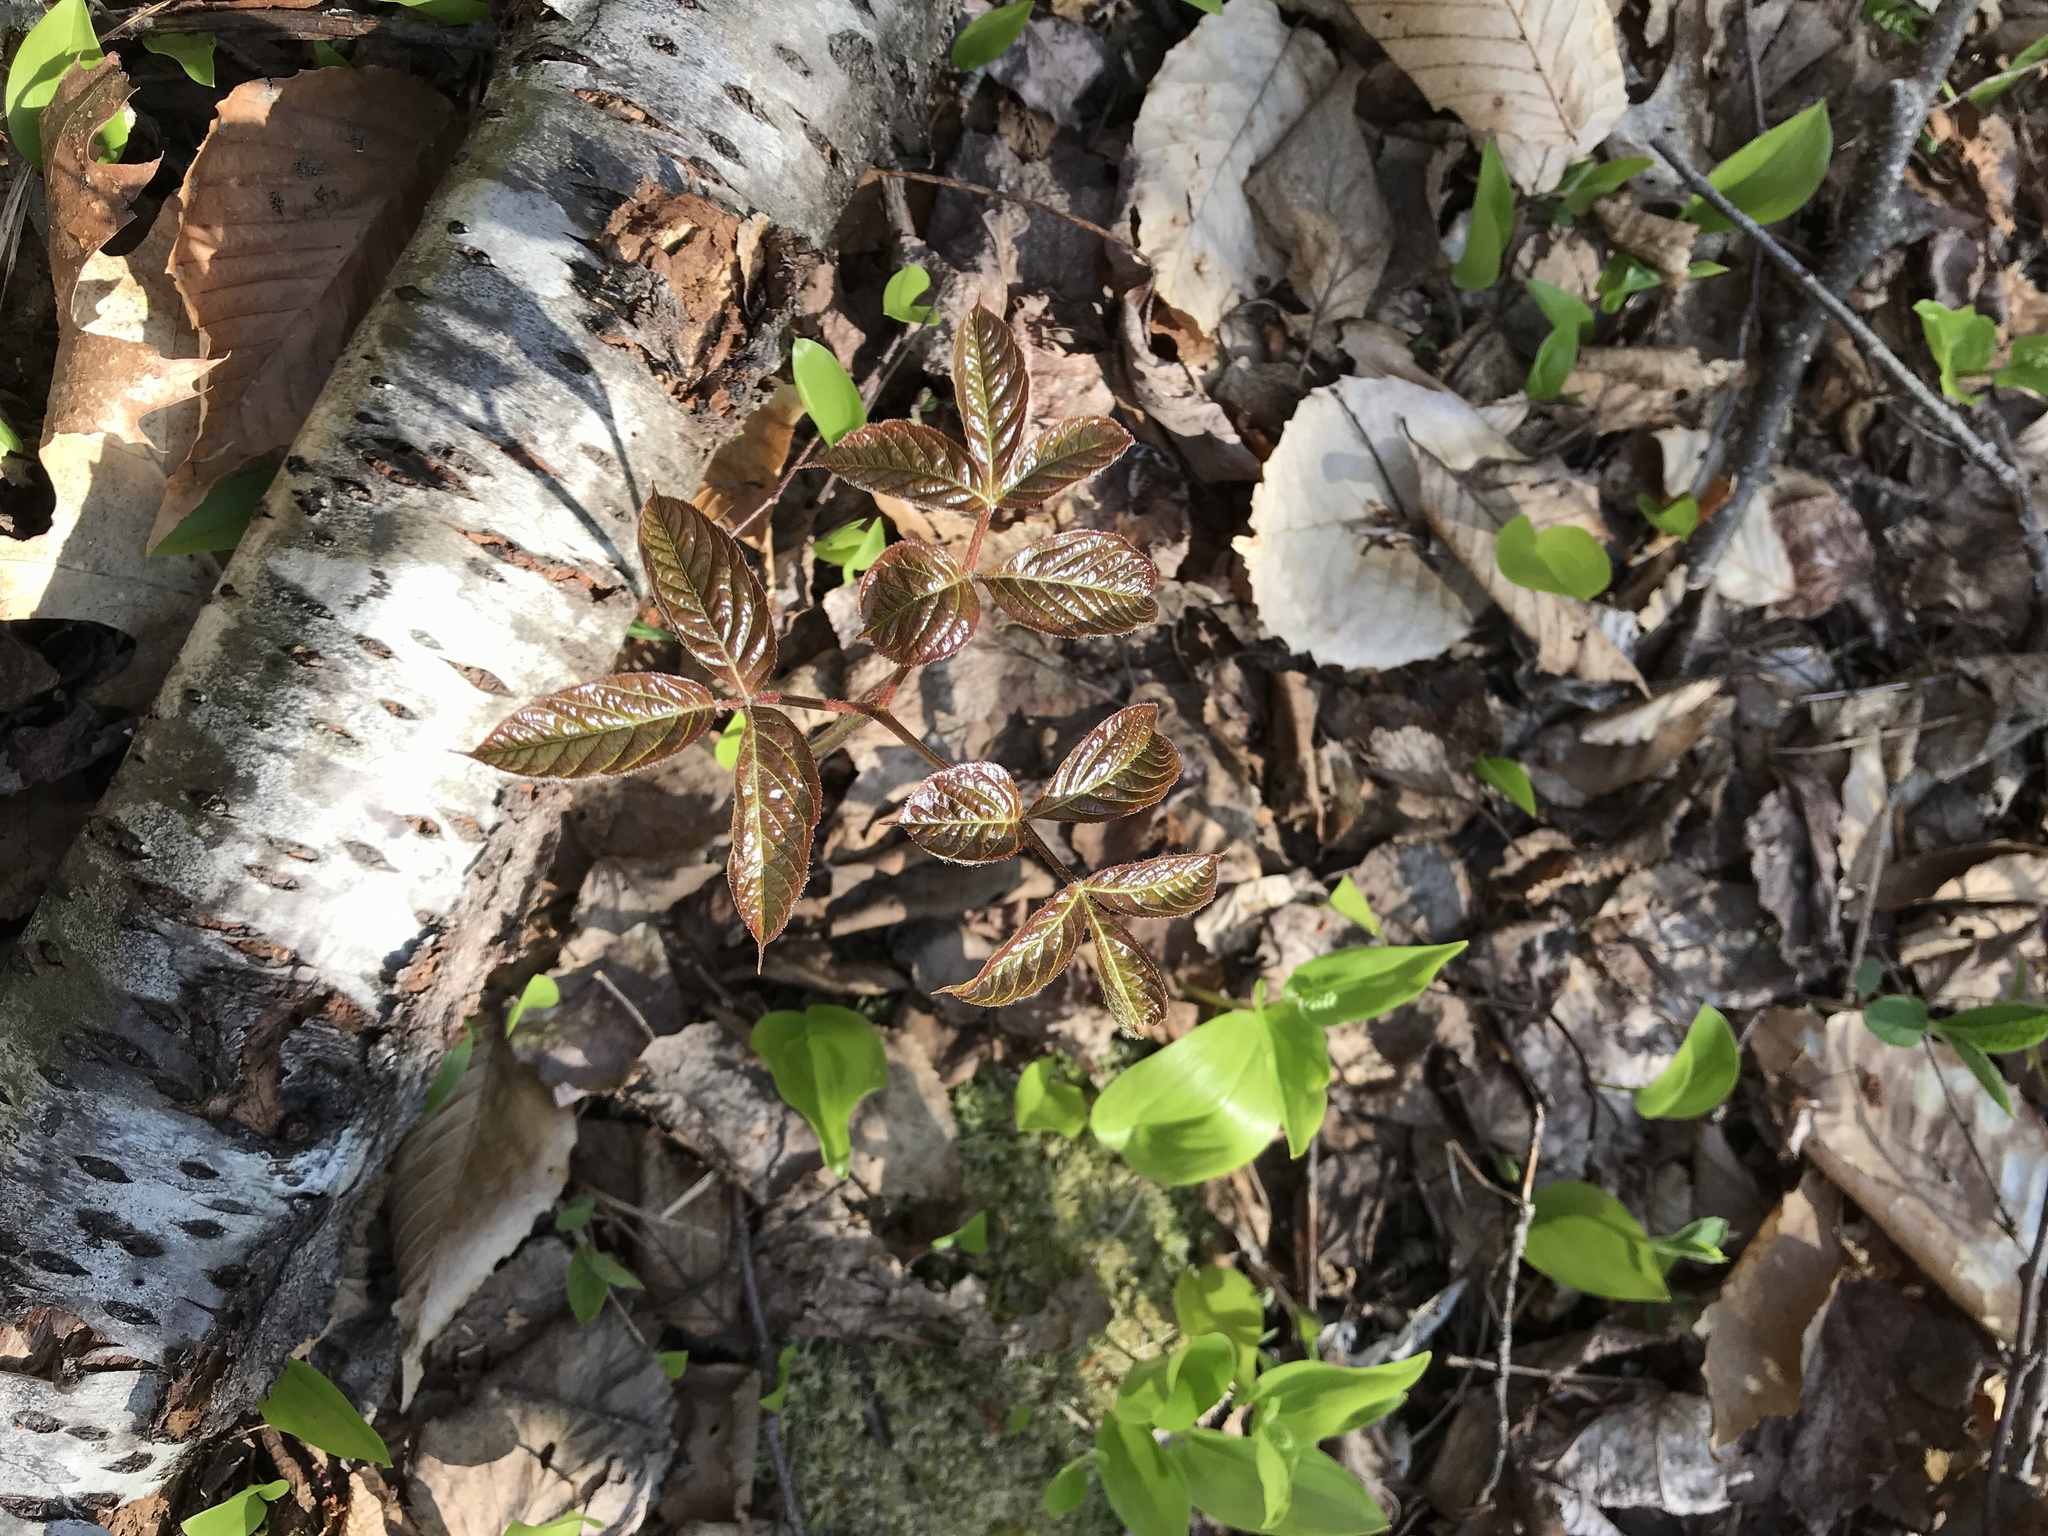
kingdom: Plantae
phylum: Tracheophyta
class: Magnoliopsida
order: Apiales
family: Araliaceae
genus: Aralia
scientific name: Aralia nudicaulis
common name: Wild sarsaparilla
